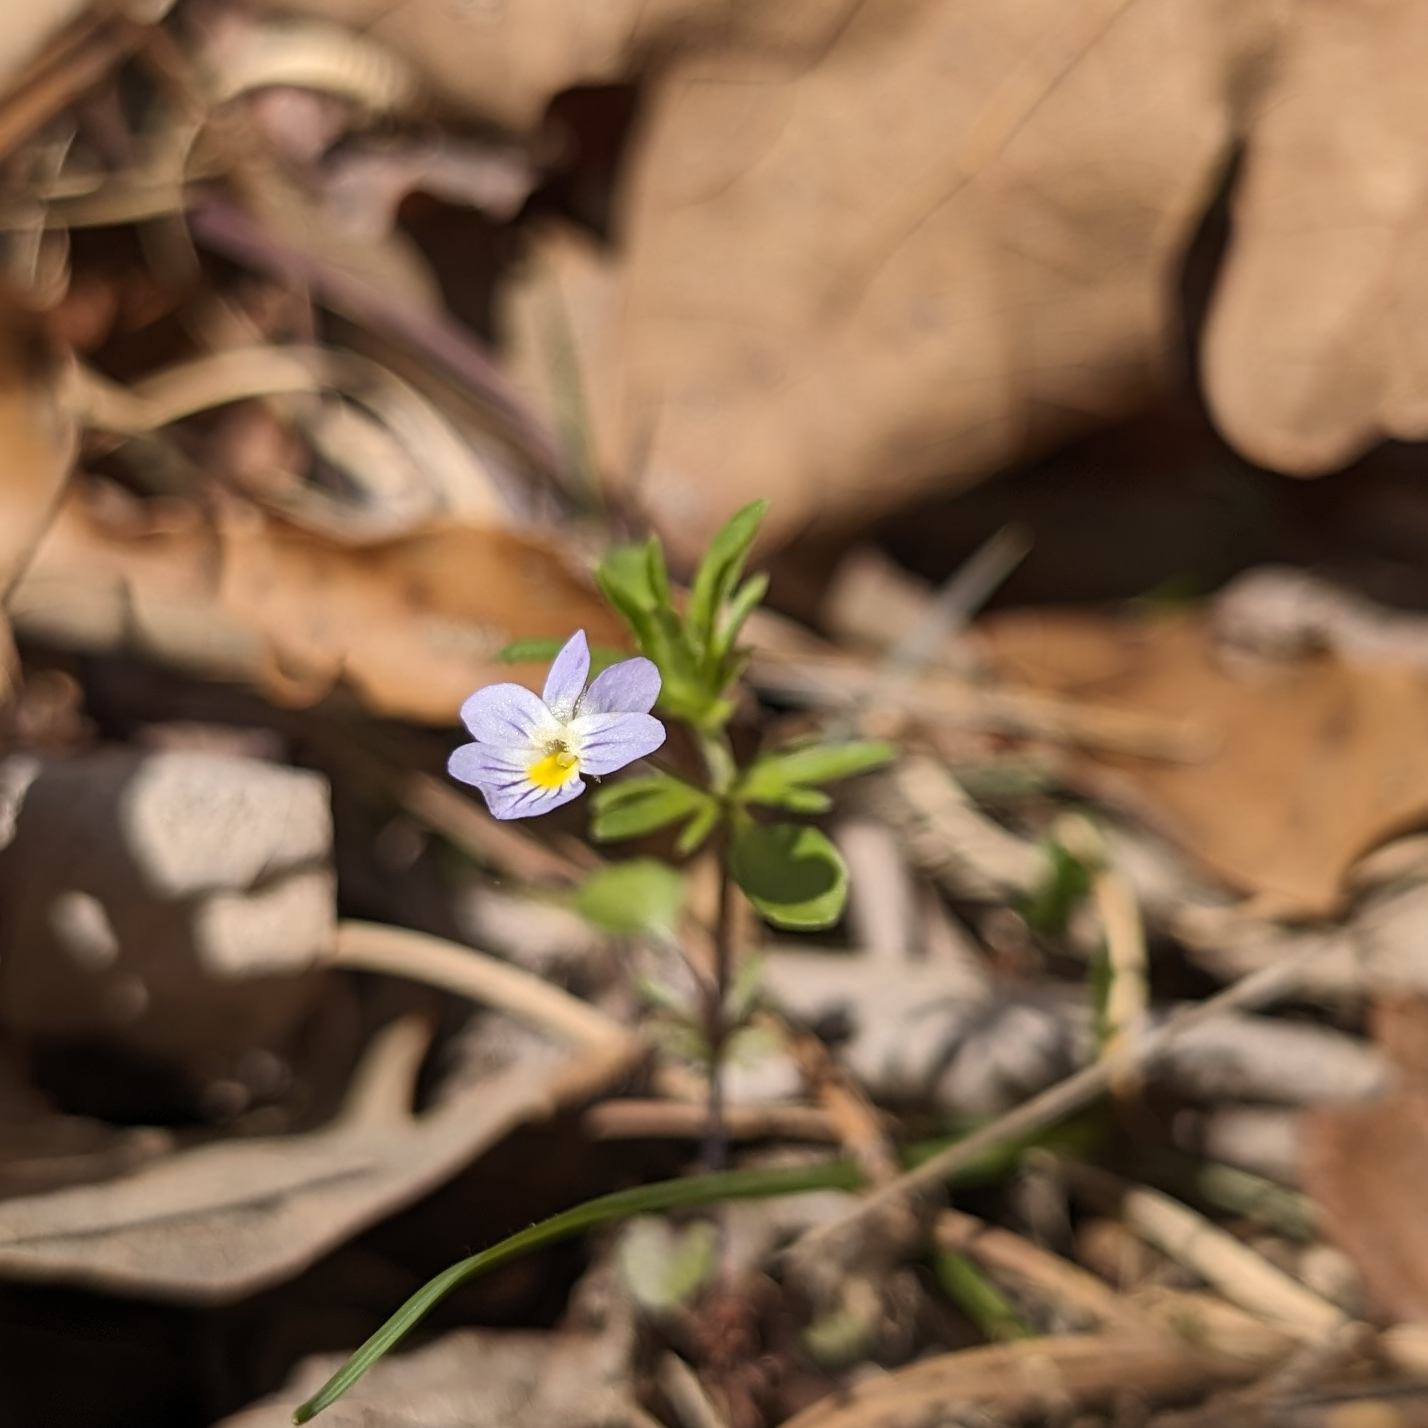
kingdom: Plantae
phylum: Tracheophyta
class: Magnoliopsida
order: Malpighiales
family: Violaceae
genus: Viola
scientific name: Viola rafinesquei
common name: American field pansy
